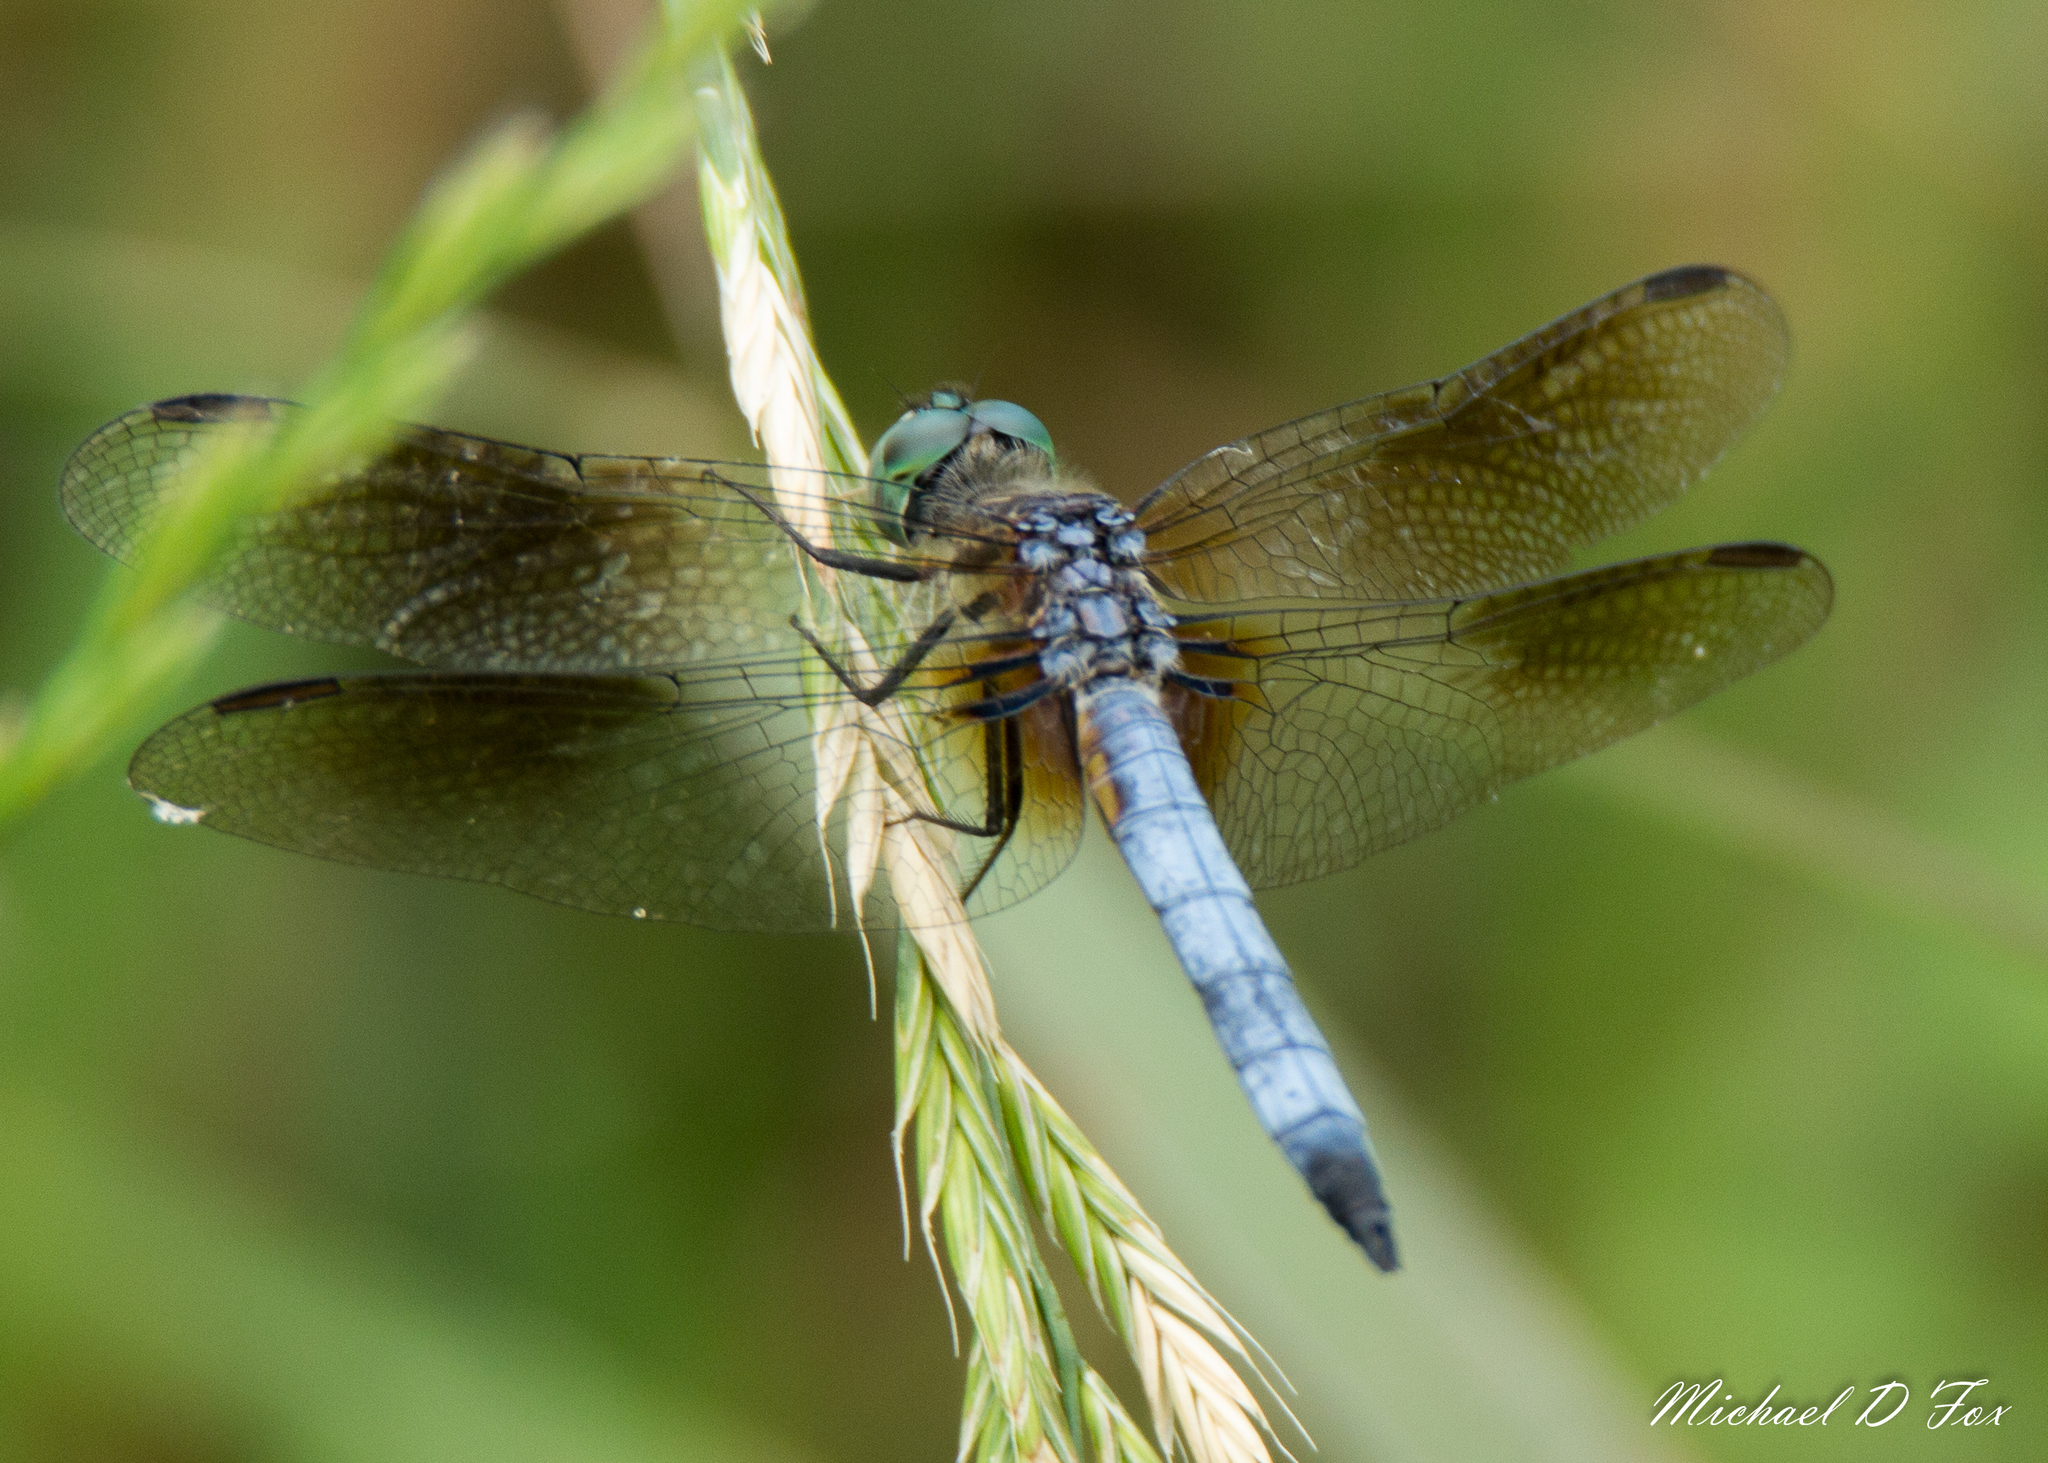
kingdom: Animalia
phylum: Arthropoda
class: Insecta
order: Odonata
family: Libellulidae
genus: Pachydiplax
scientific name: Pachydiplax longipennis
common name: Blue dasher
